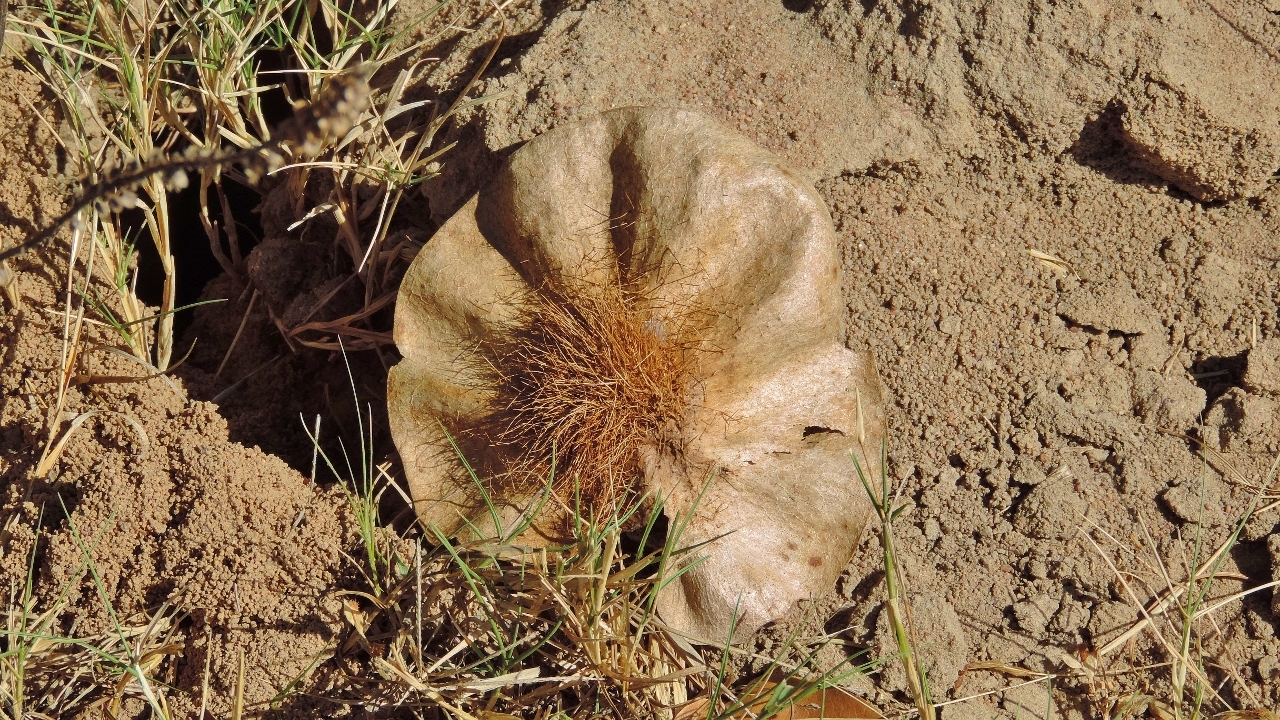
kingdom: Plantae
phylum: Tracheophyta
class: Magnoliopsida
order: Fabales
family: Fabaceae
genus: Pterocarpus
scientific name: Pterocarpus angolensis
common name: Bloodwood tree
